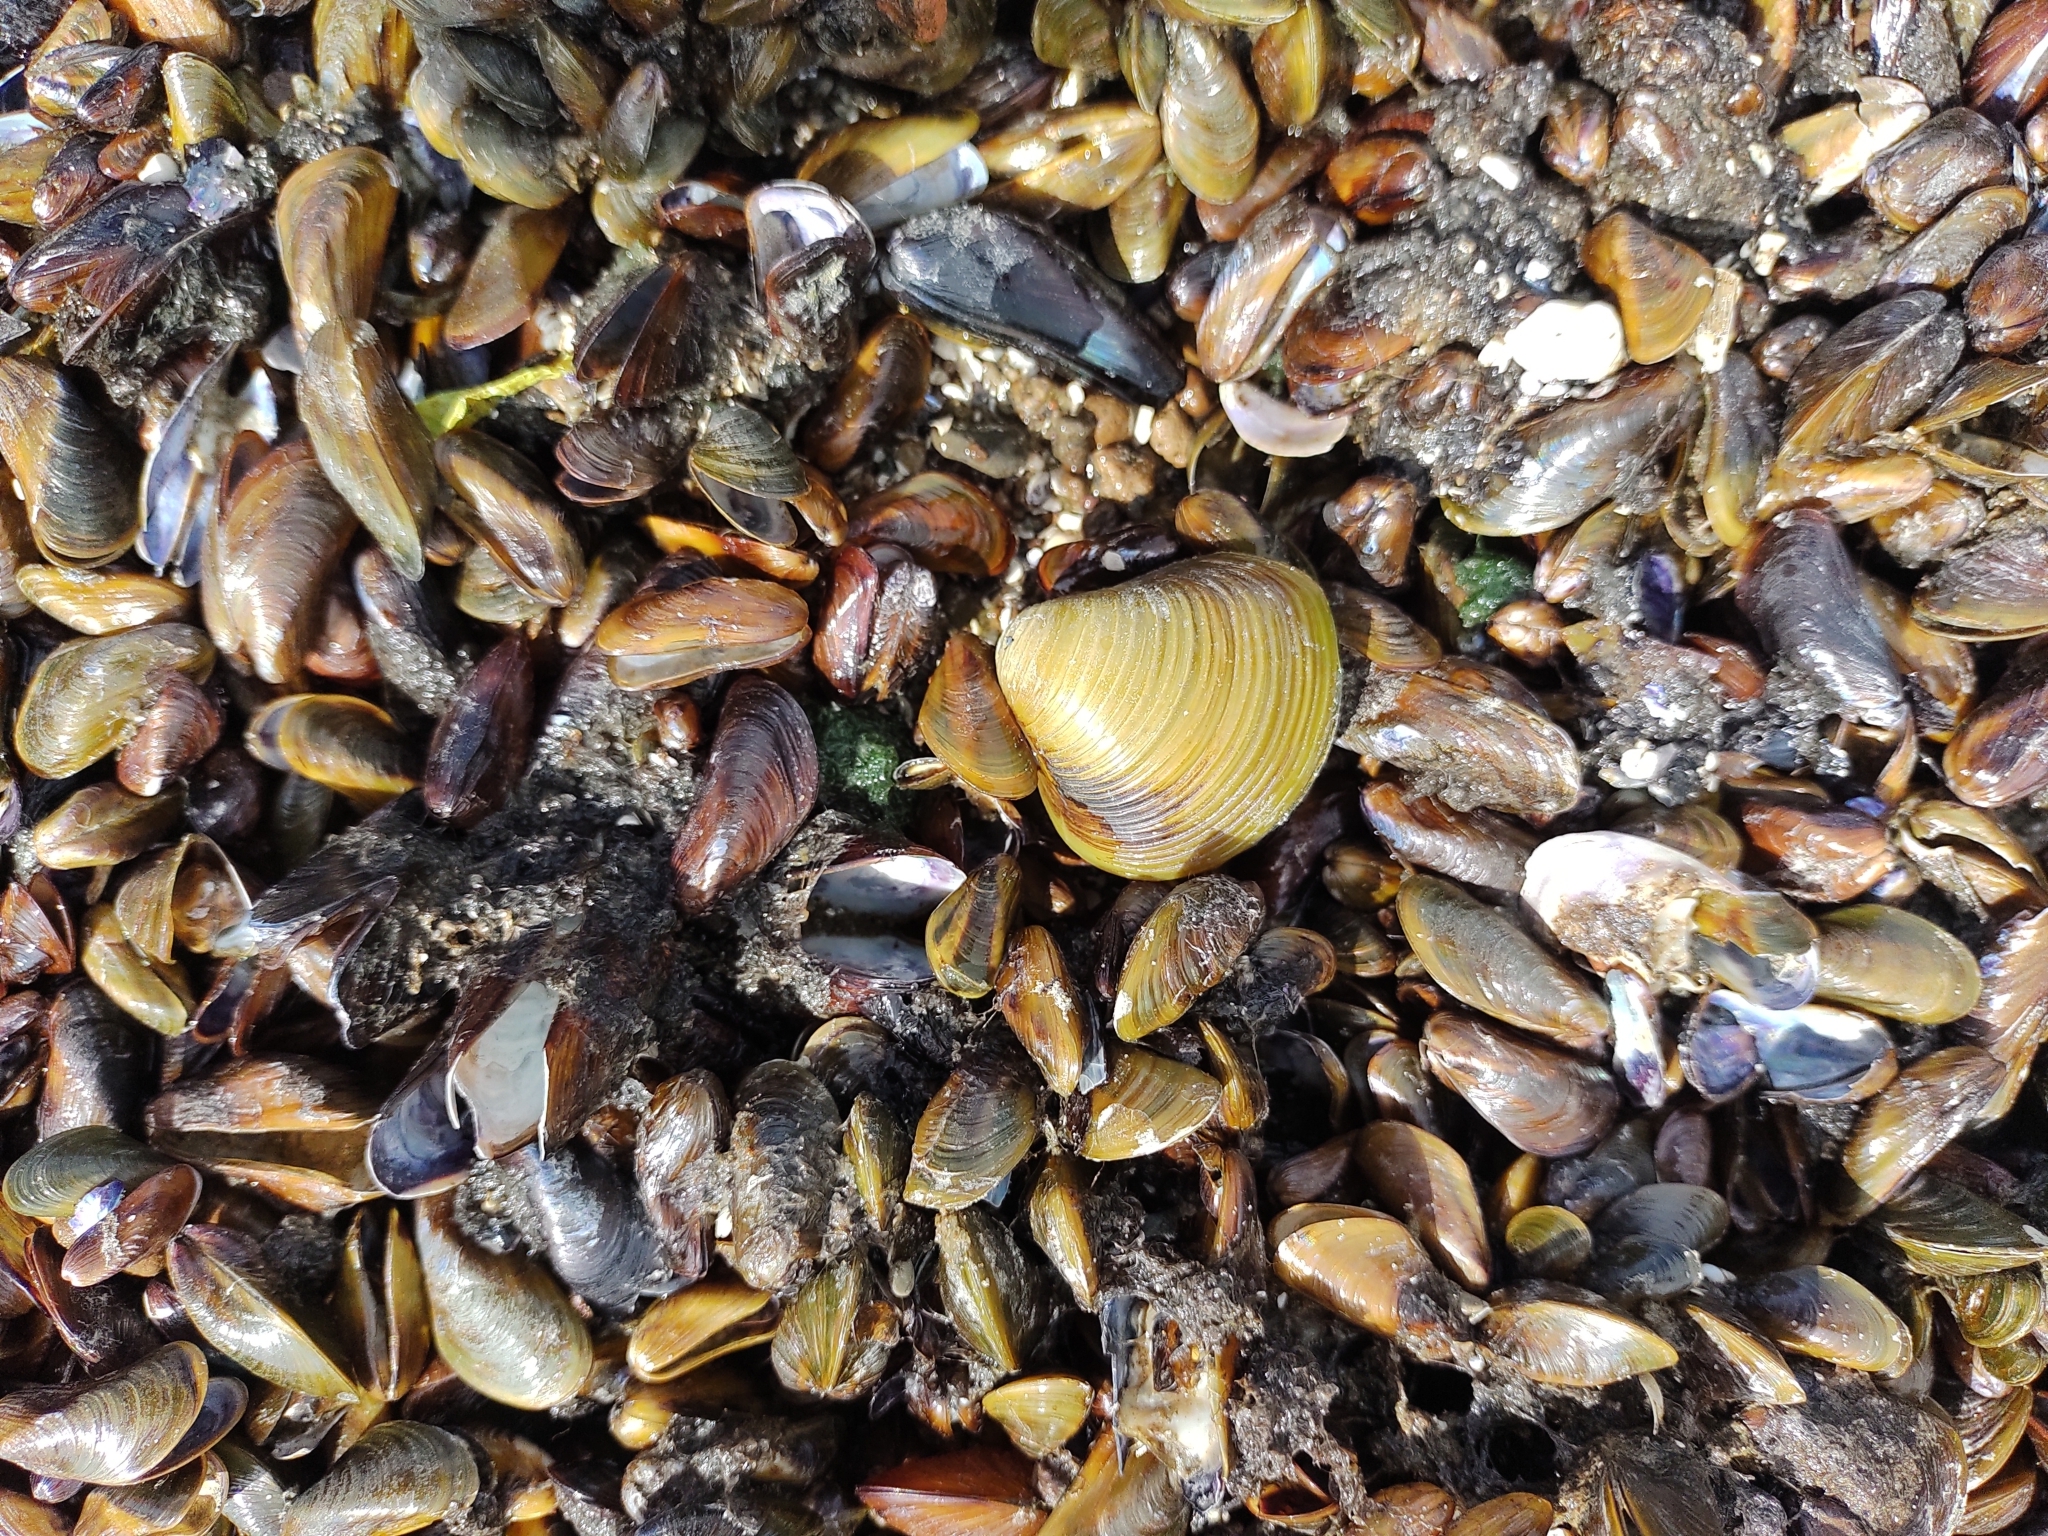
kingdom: Animalia
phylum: Mollusca
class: Bivalvia
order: Venerida
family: Cyrenidae
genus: Corbicula
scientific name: Corbicula fluminea
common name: Asian clam
